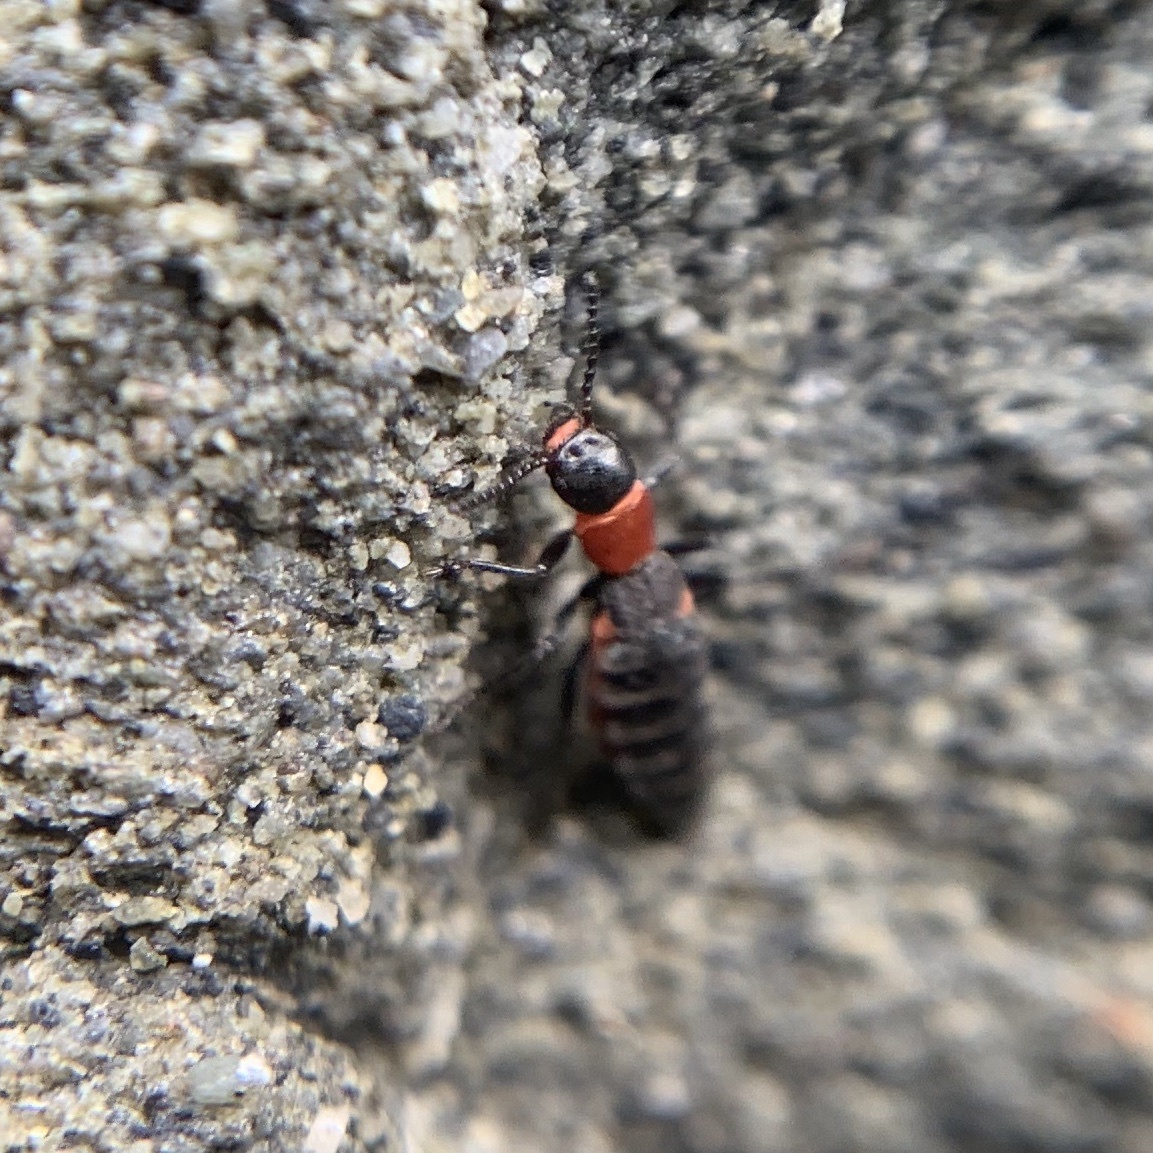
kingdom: Animalia
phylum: Arthropoda
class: Insecta
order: Coleoptera
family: Melyridae
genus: Endeodes
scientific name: Endeodes collaris
